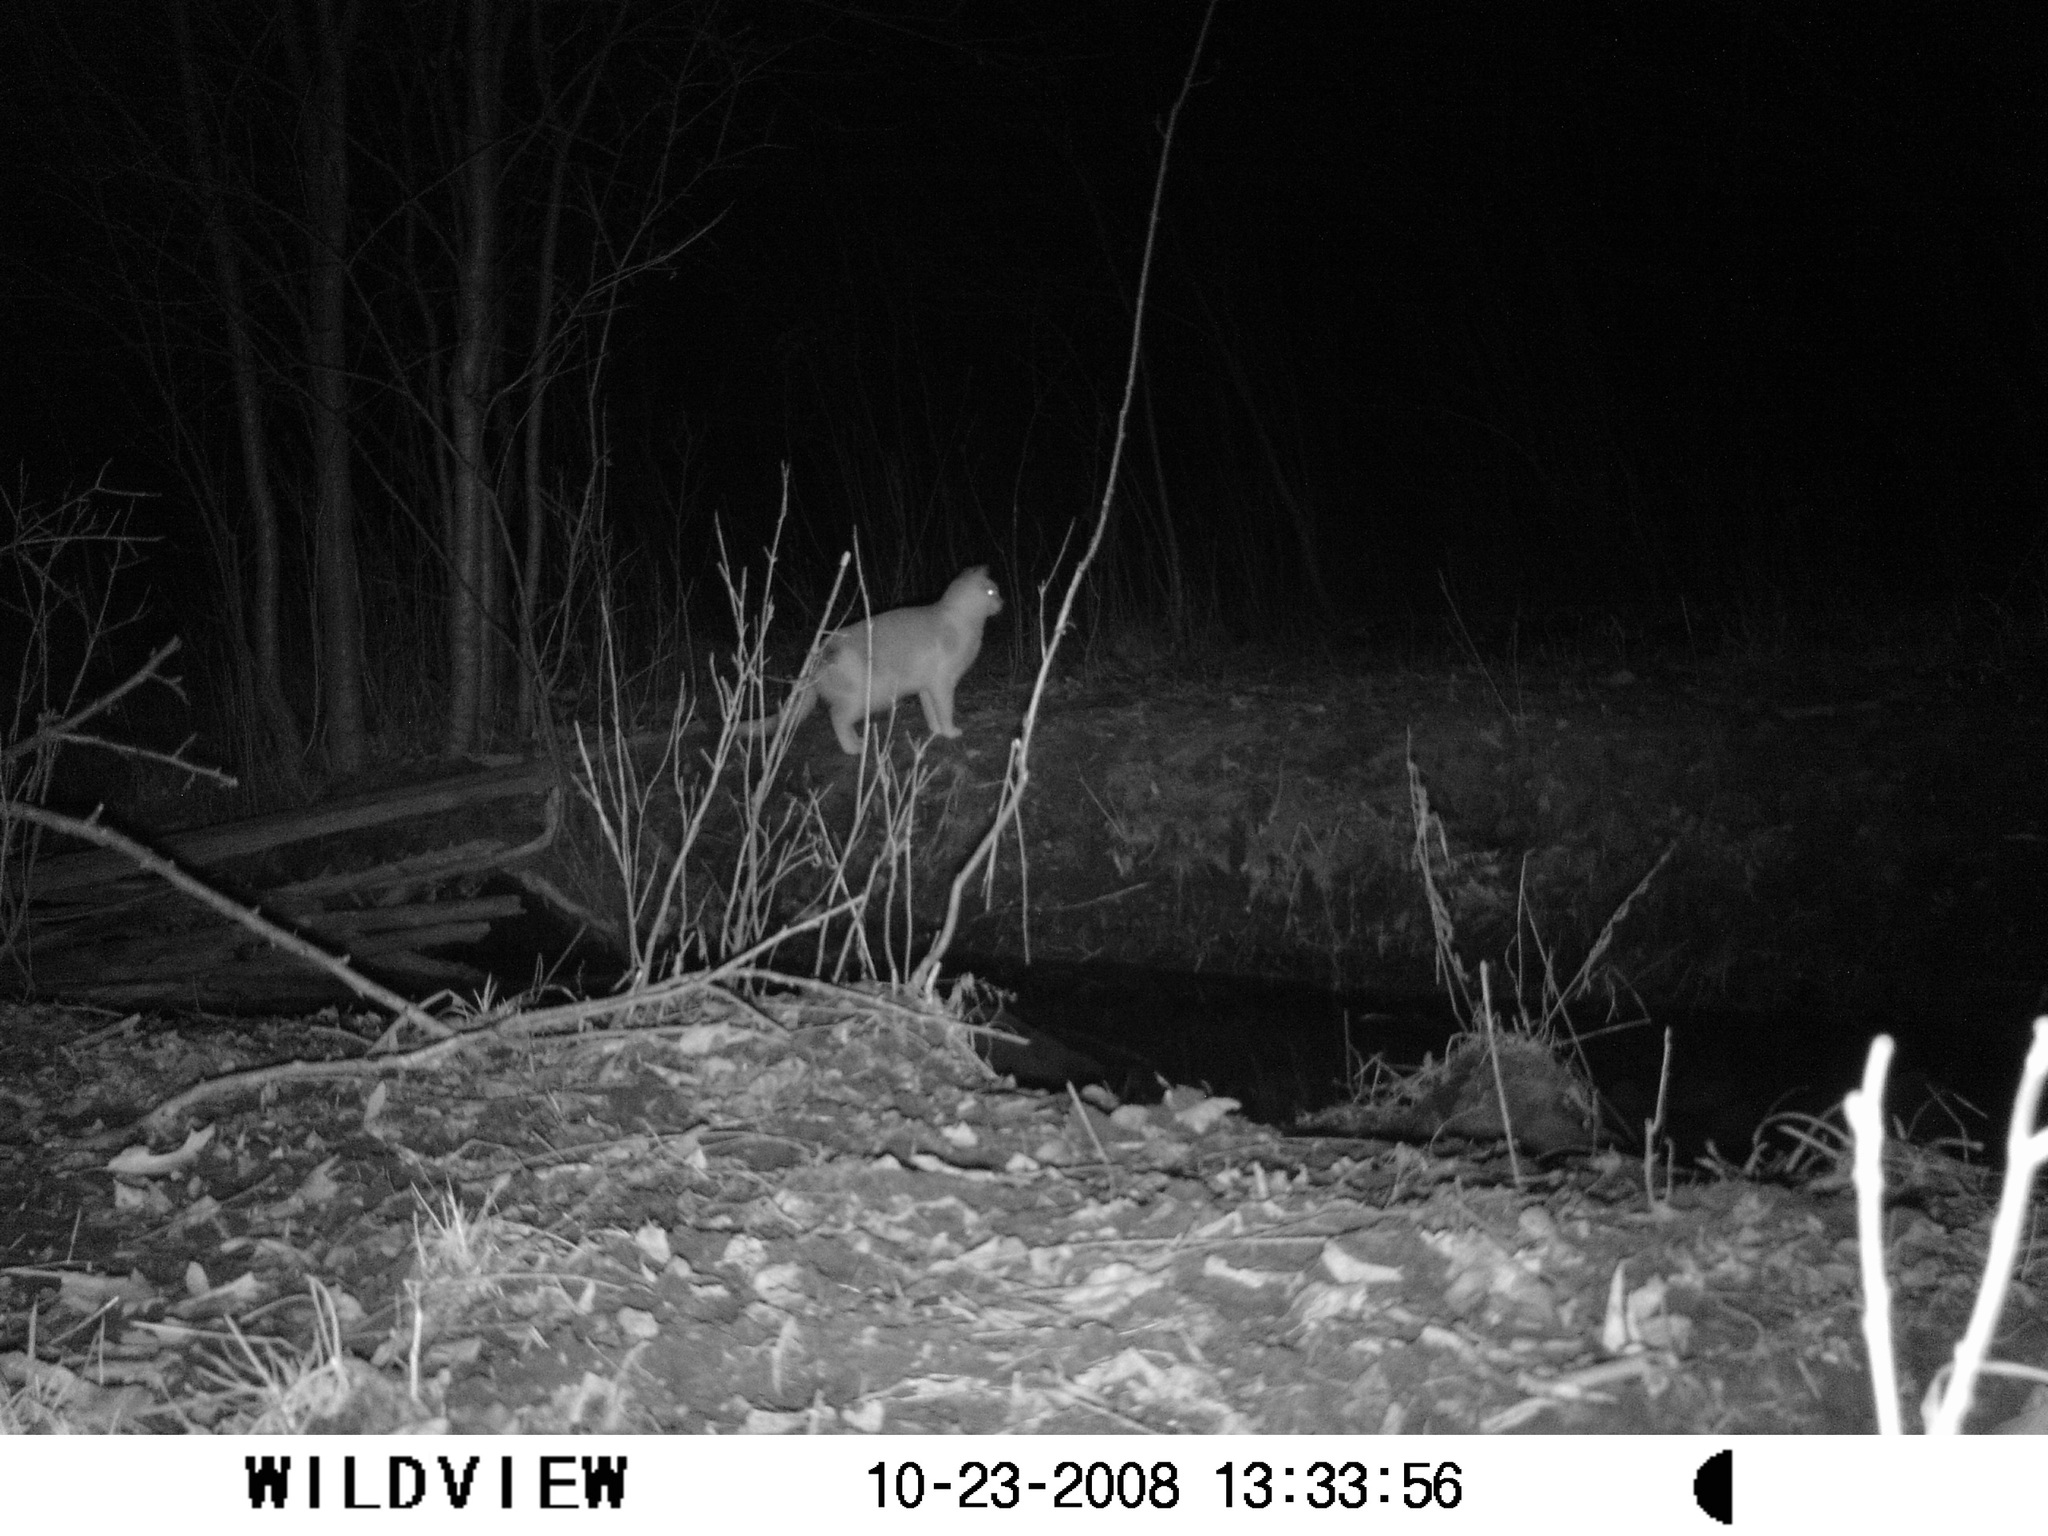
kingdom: Animalia
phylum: Chordata
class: Mammalia
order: Carnivora
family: Felidae
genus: Felis
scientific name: Felis catus
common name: Domestic cat
